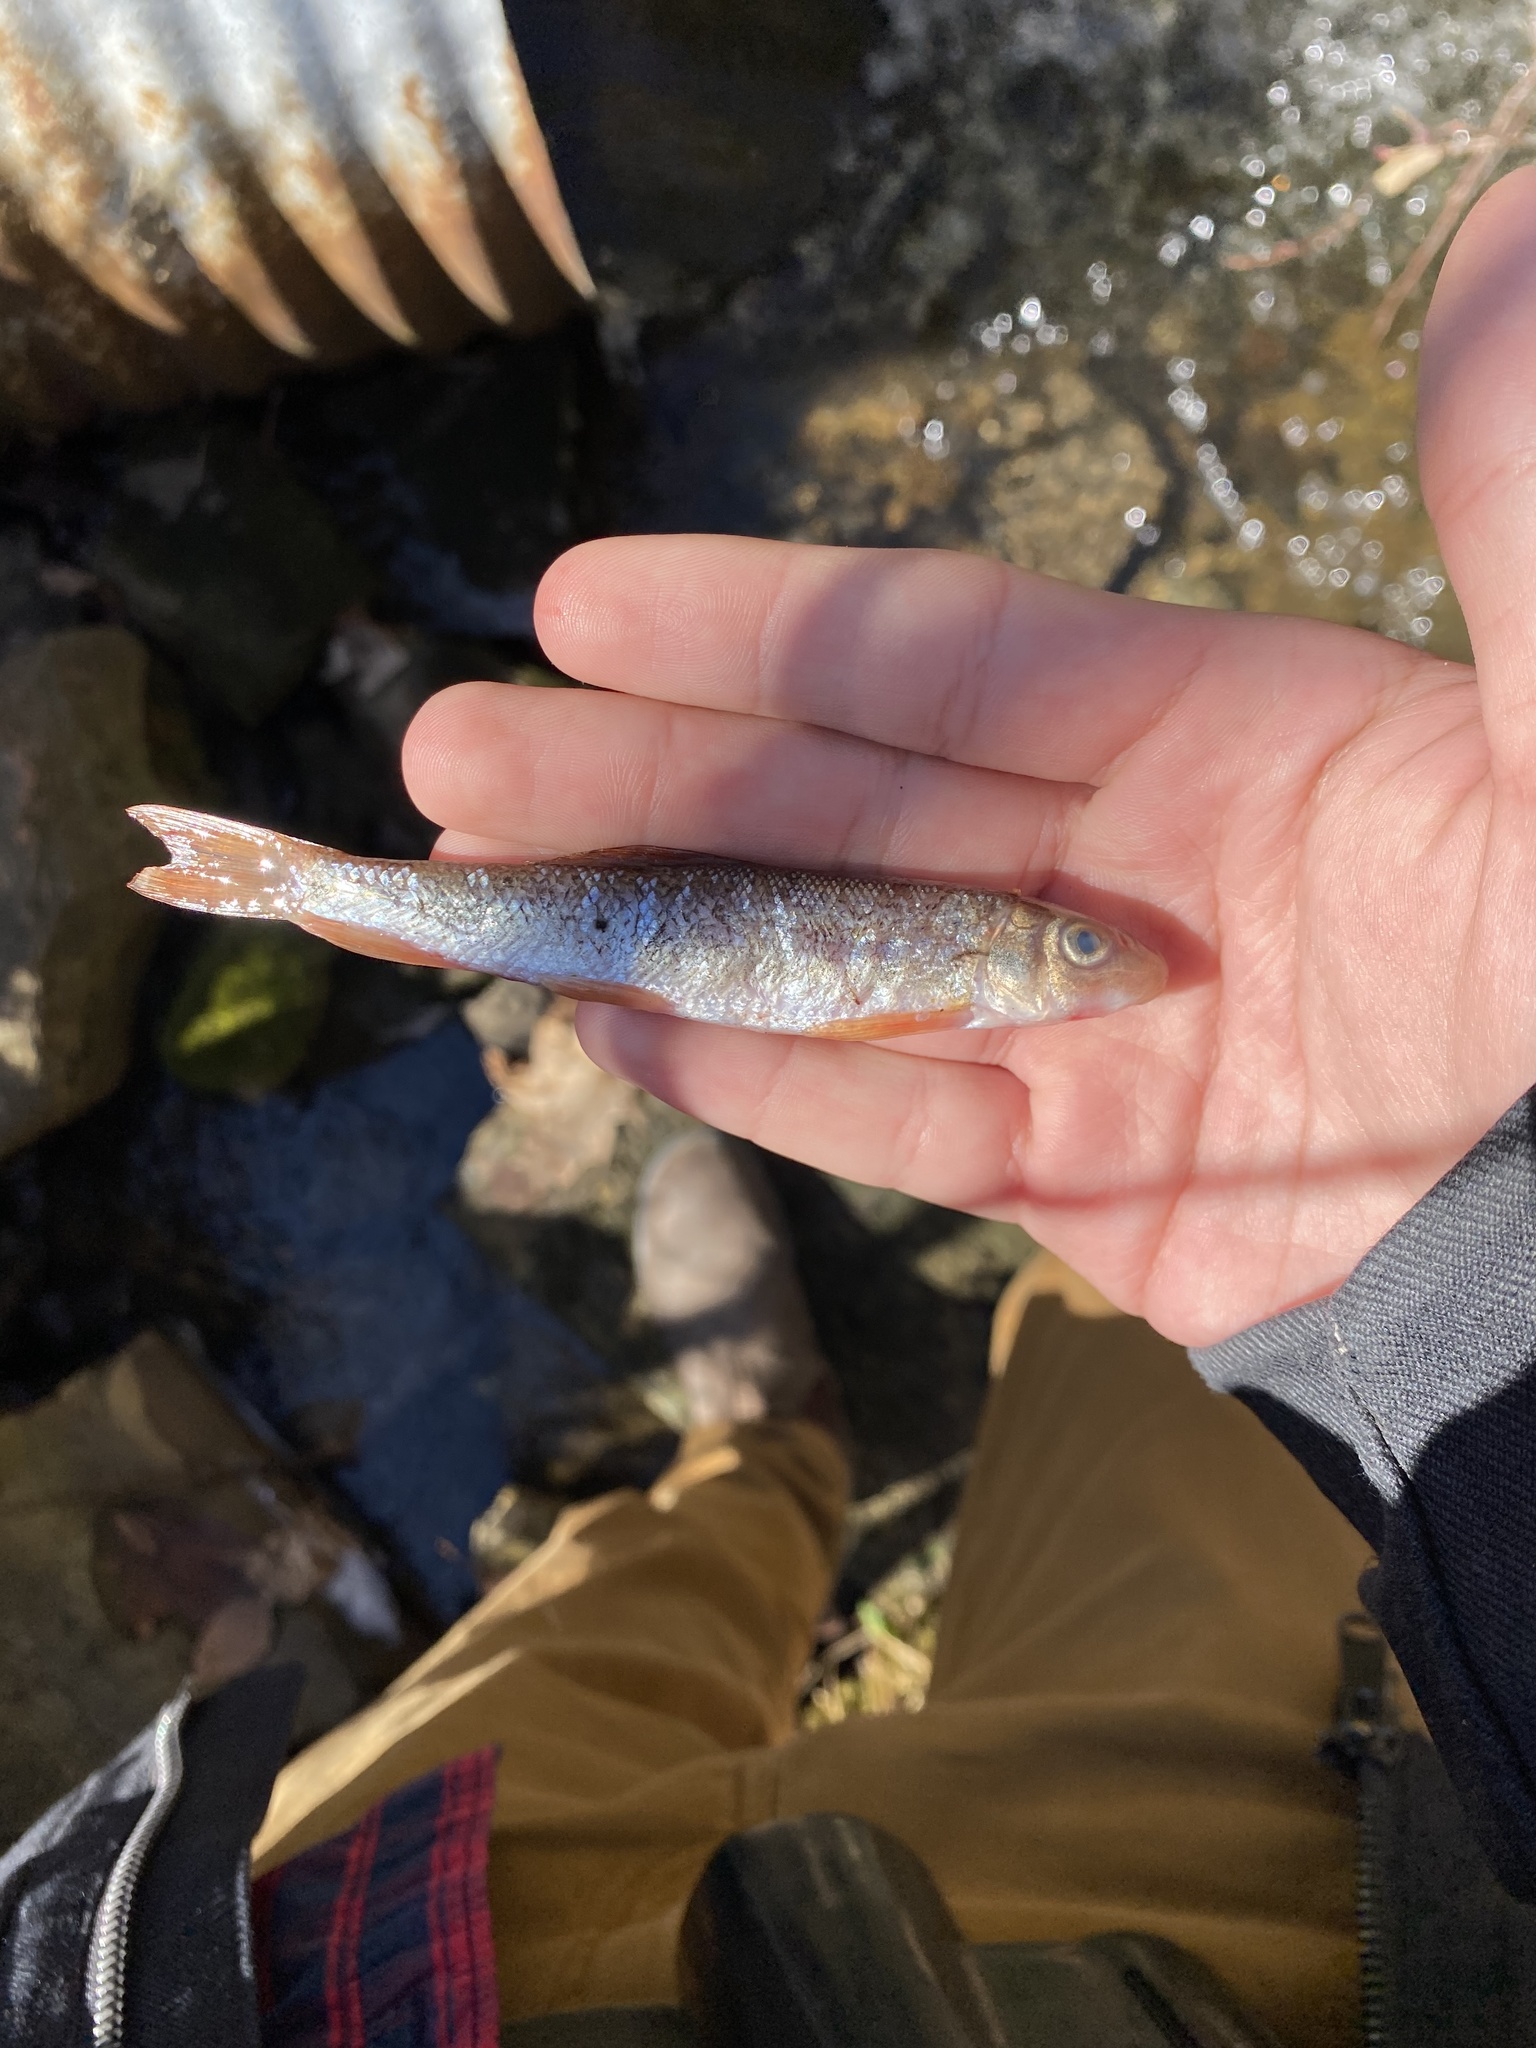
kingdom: Animalia
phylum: Chordata
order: Cypriniformes
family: Catostomidae
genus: Catostomus
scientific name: Catostomus commersonii
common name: White sucker
